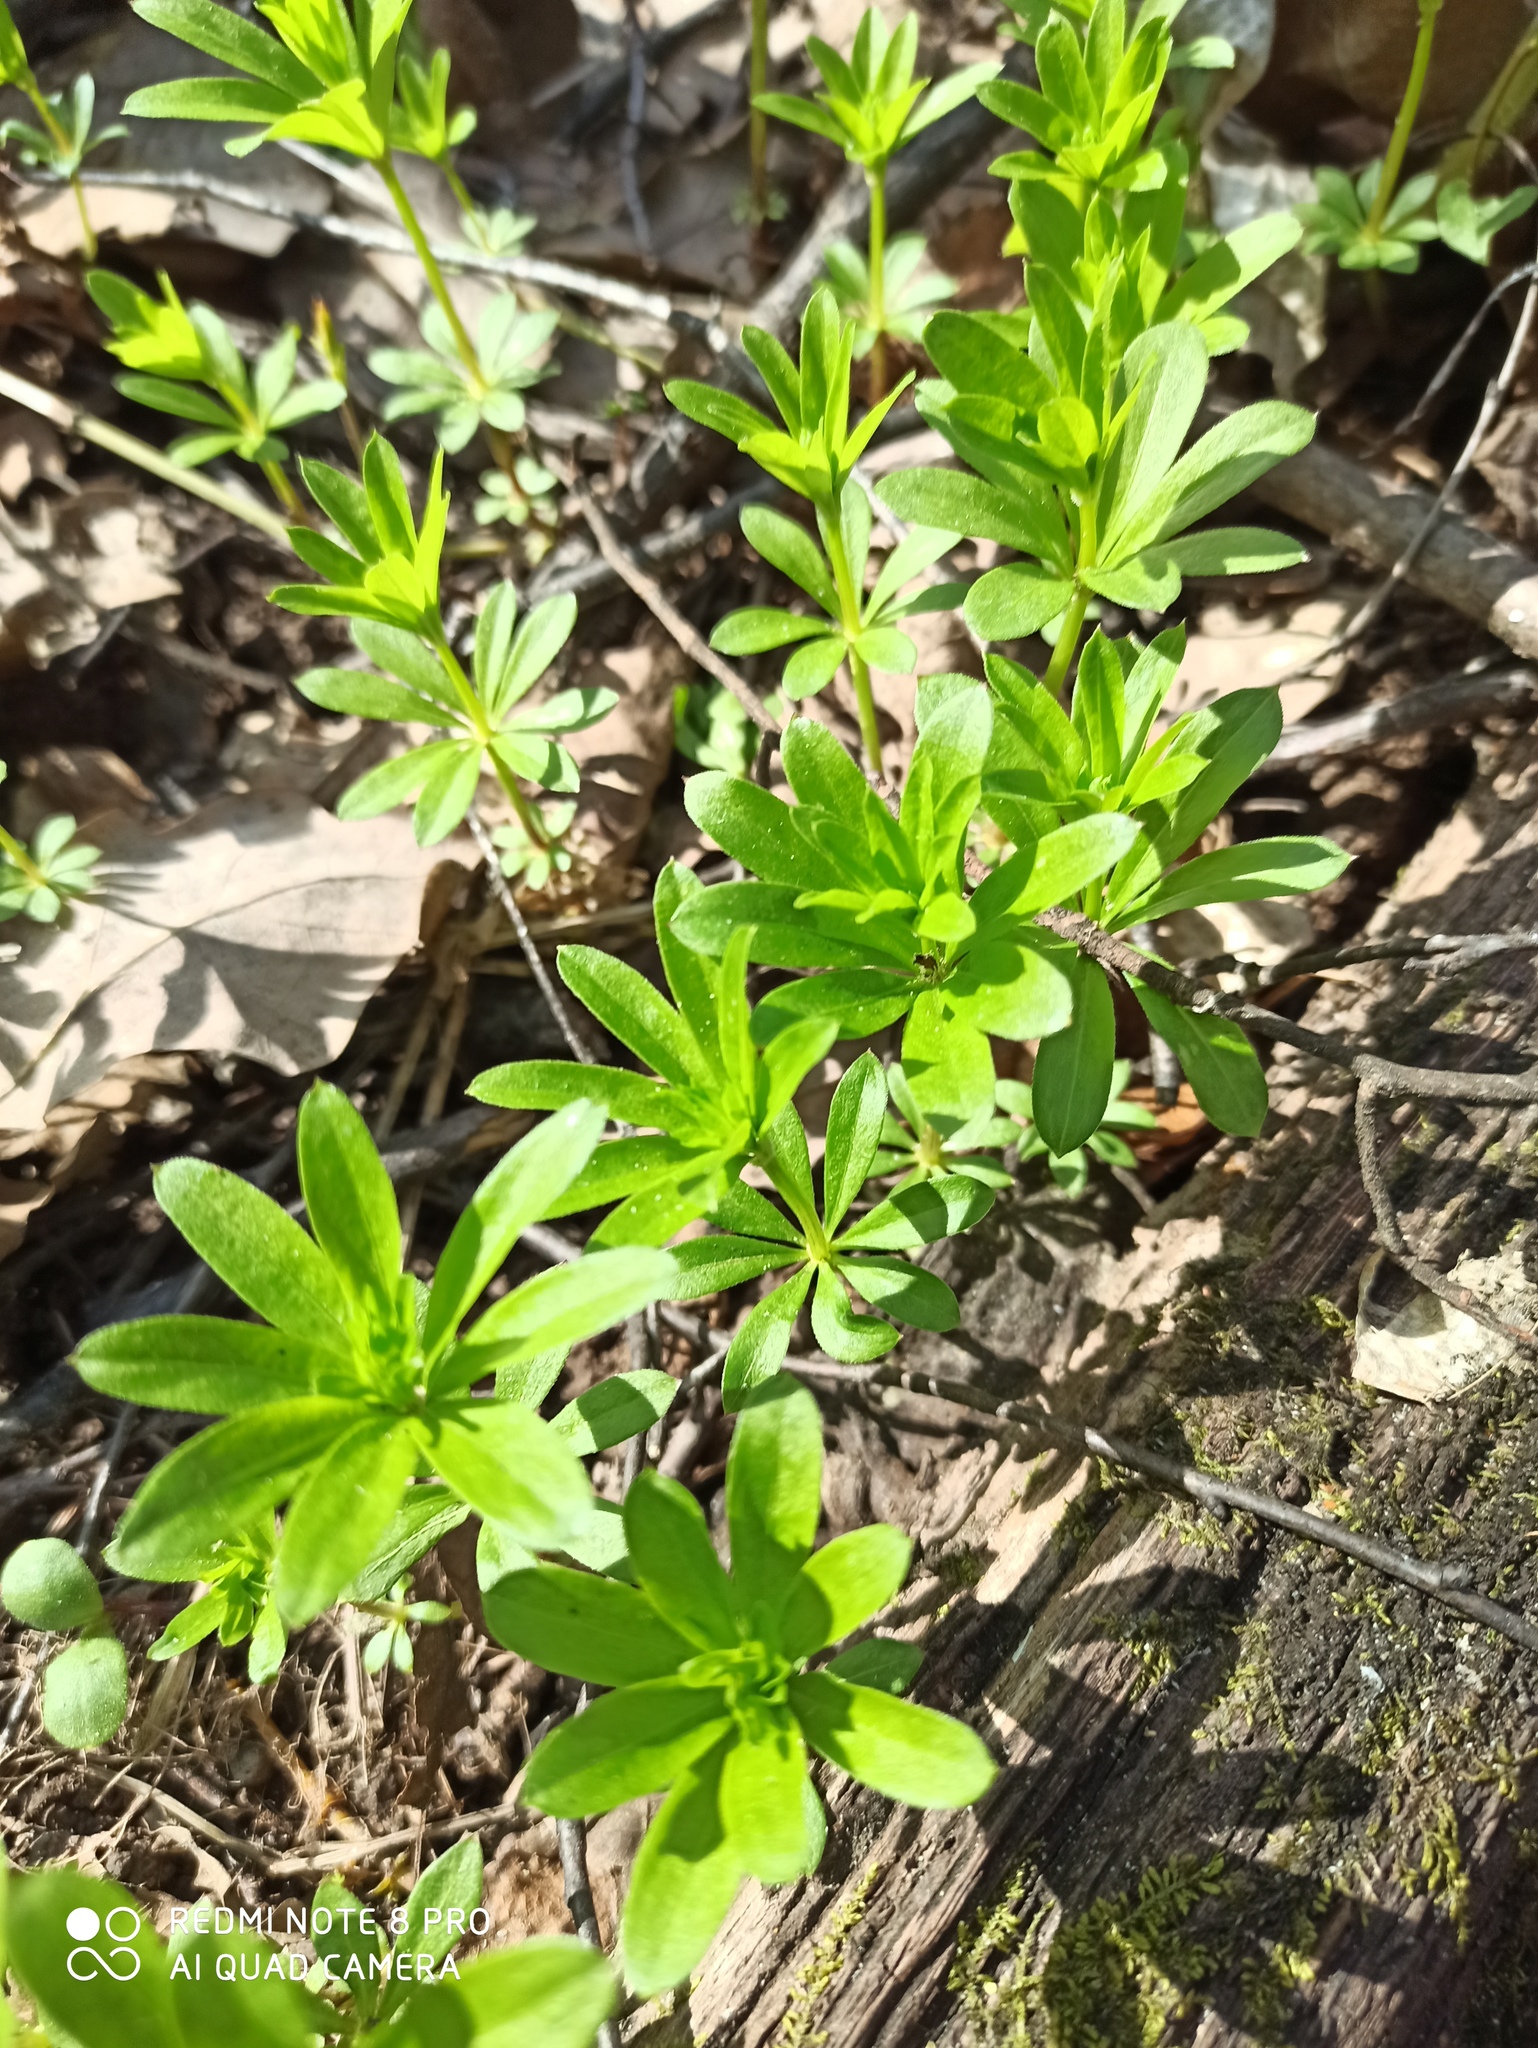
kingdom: Plantae
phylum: Tracheophyta
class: Magnoliopsida
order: Gentianales
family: Rubiaceae
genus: Galium
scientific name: Galium odoratum
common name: Sweet woodruff
